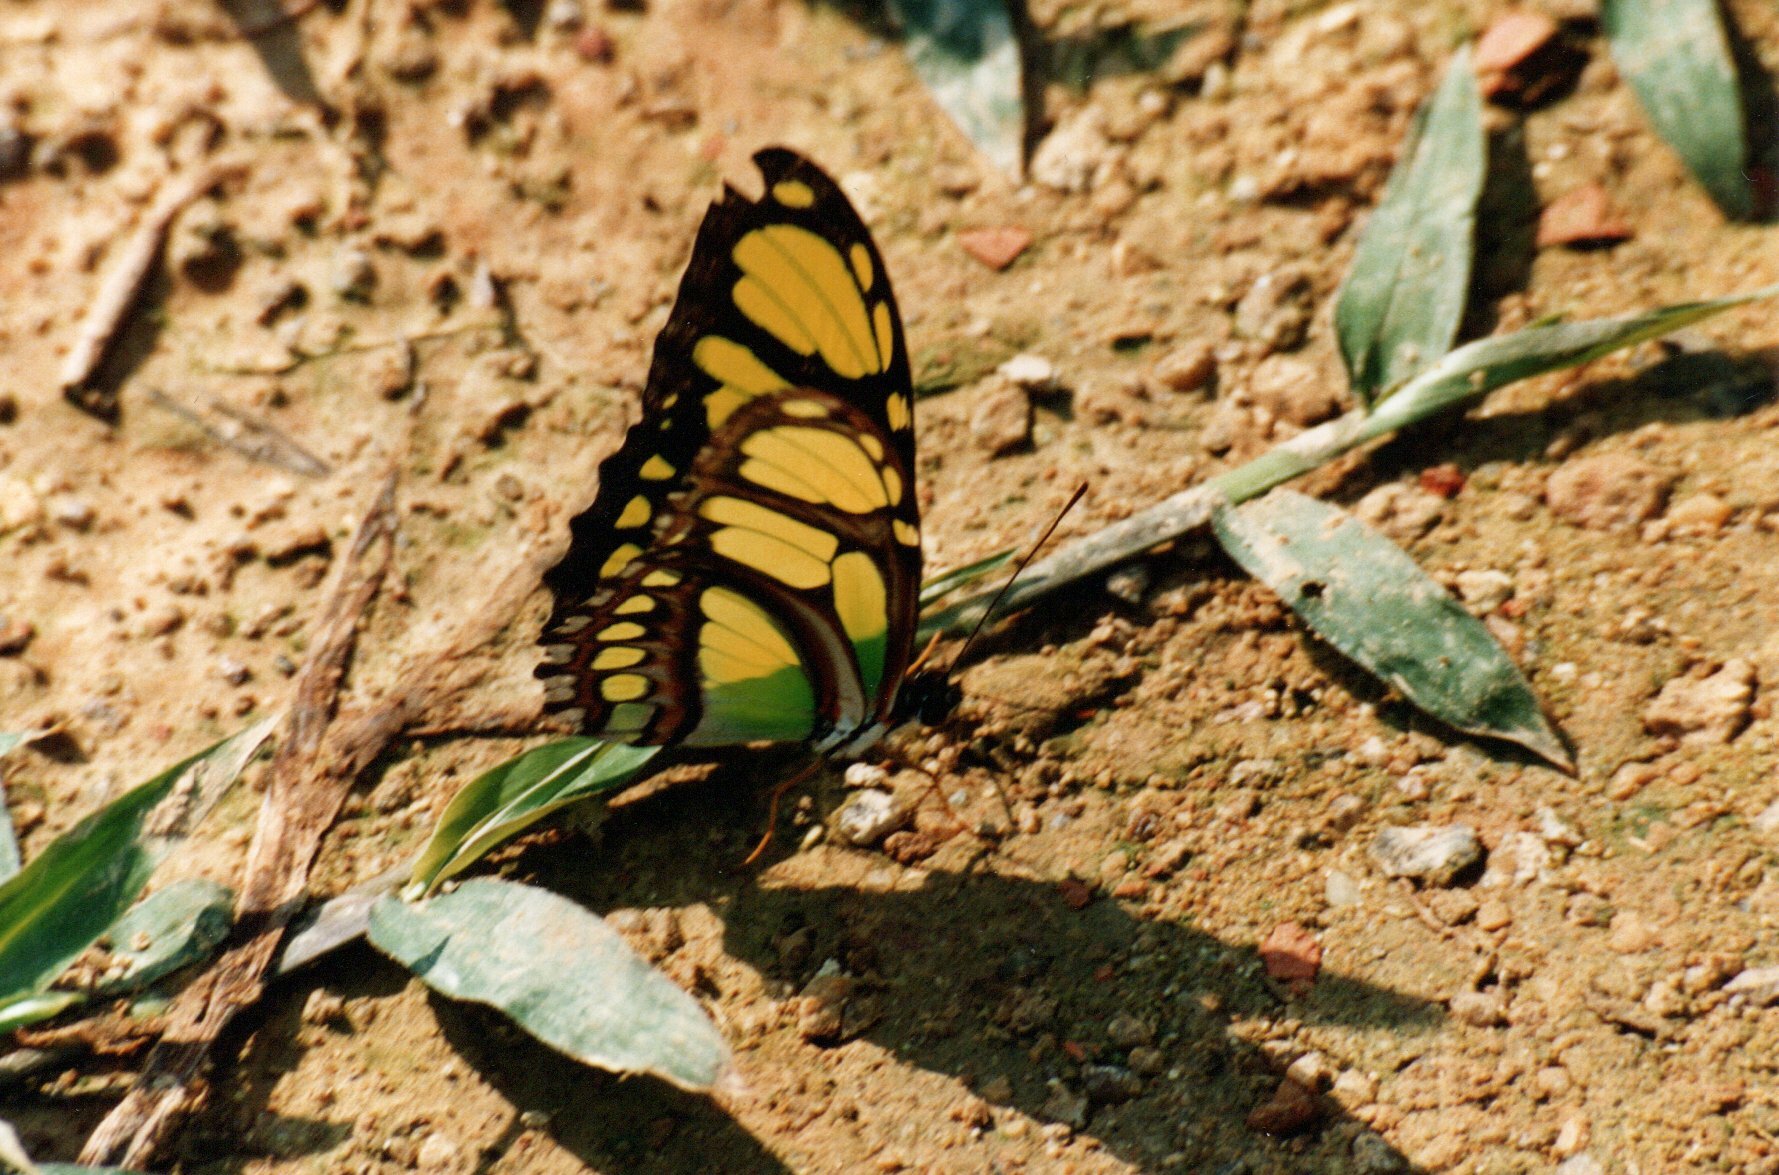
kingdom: Animalia
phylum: Arthropoda
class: Insecta
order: Lepidoptera
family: Nymphalidae
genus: Philaethria
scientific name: Philaethria dido
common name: Scarce bamboo page
